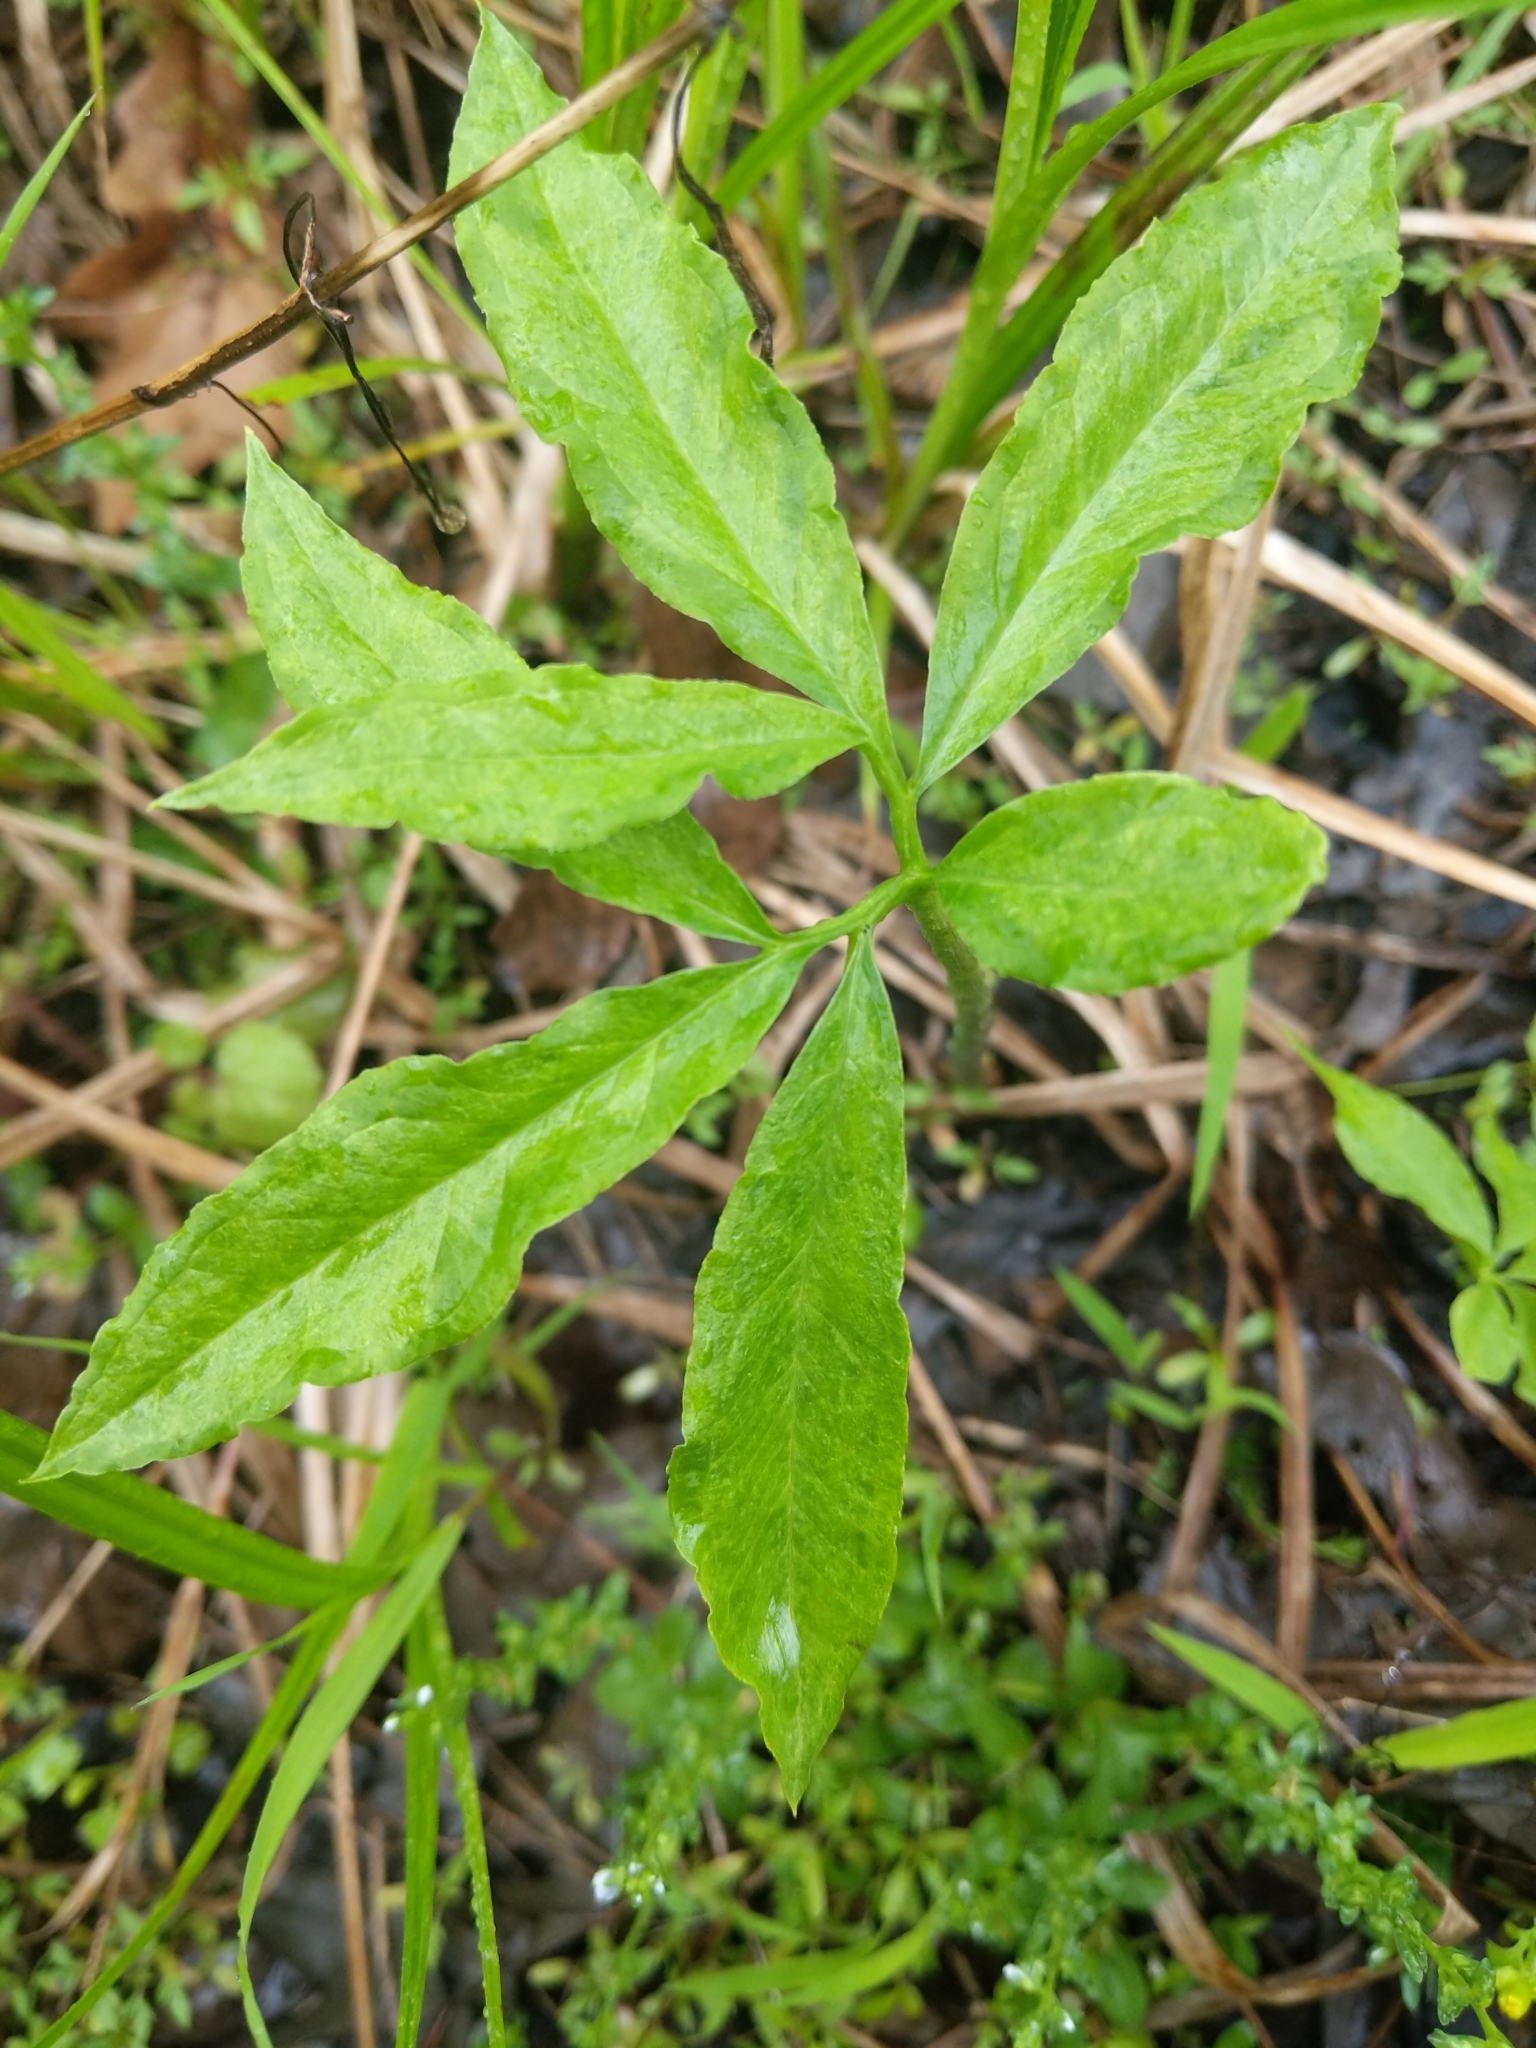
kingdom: Plantae
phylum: Tracheophyta
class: Liliopsida
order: Alismatales
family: Araceae
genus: Arisaema
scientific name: Arisaema dracontium
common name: Dragon-arum
